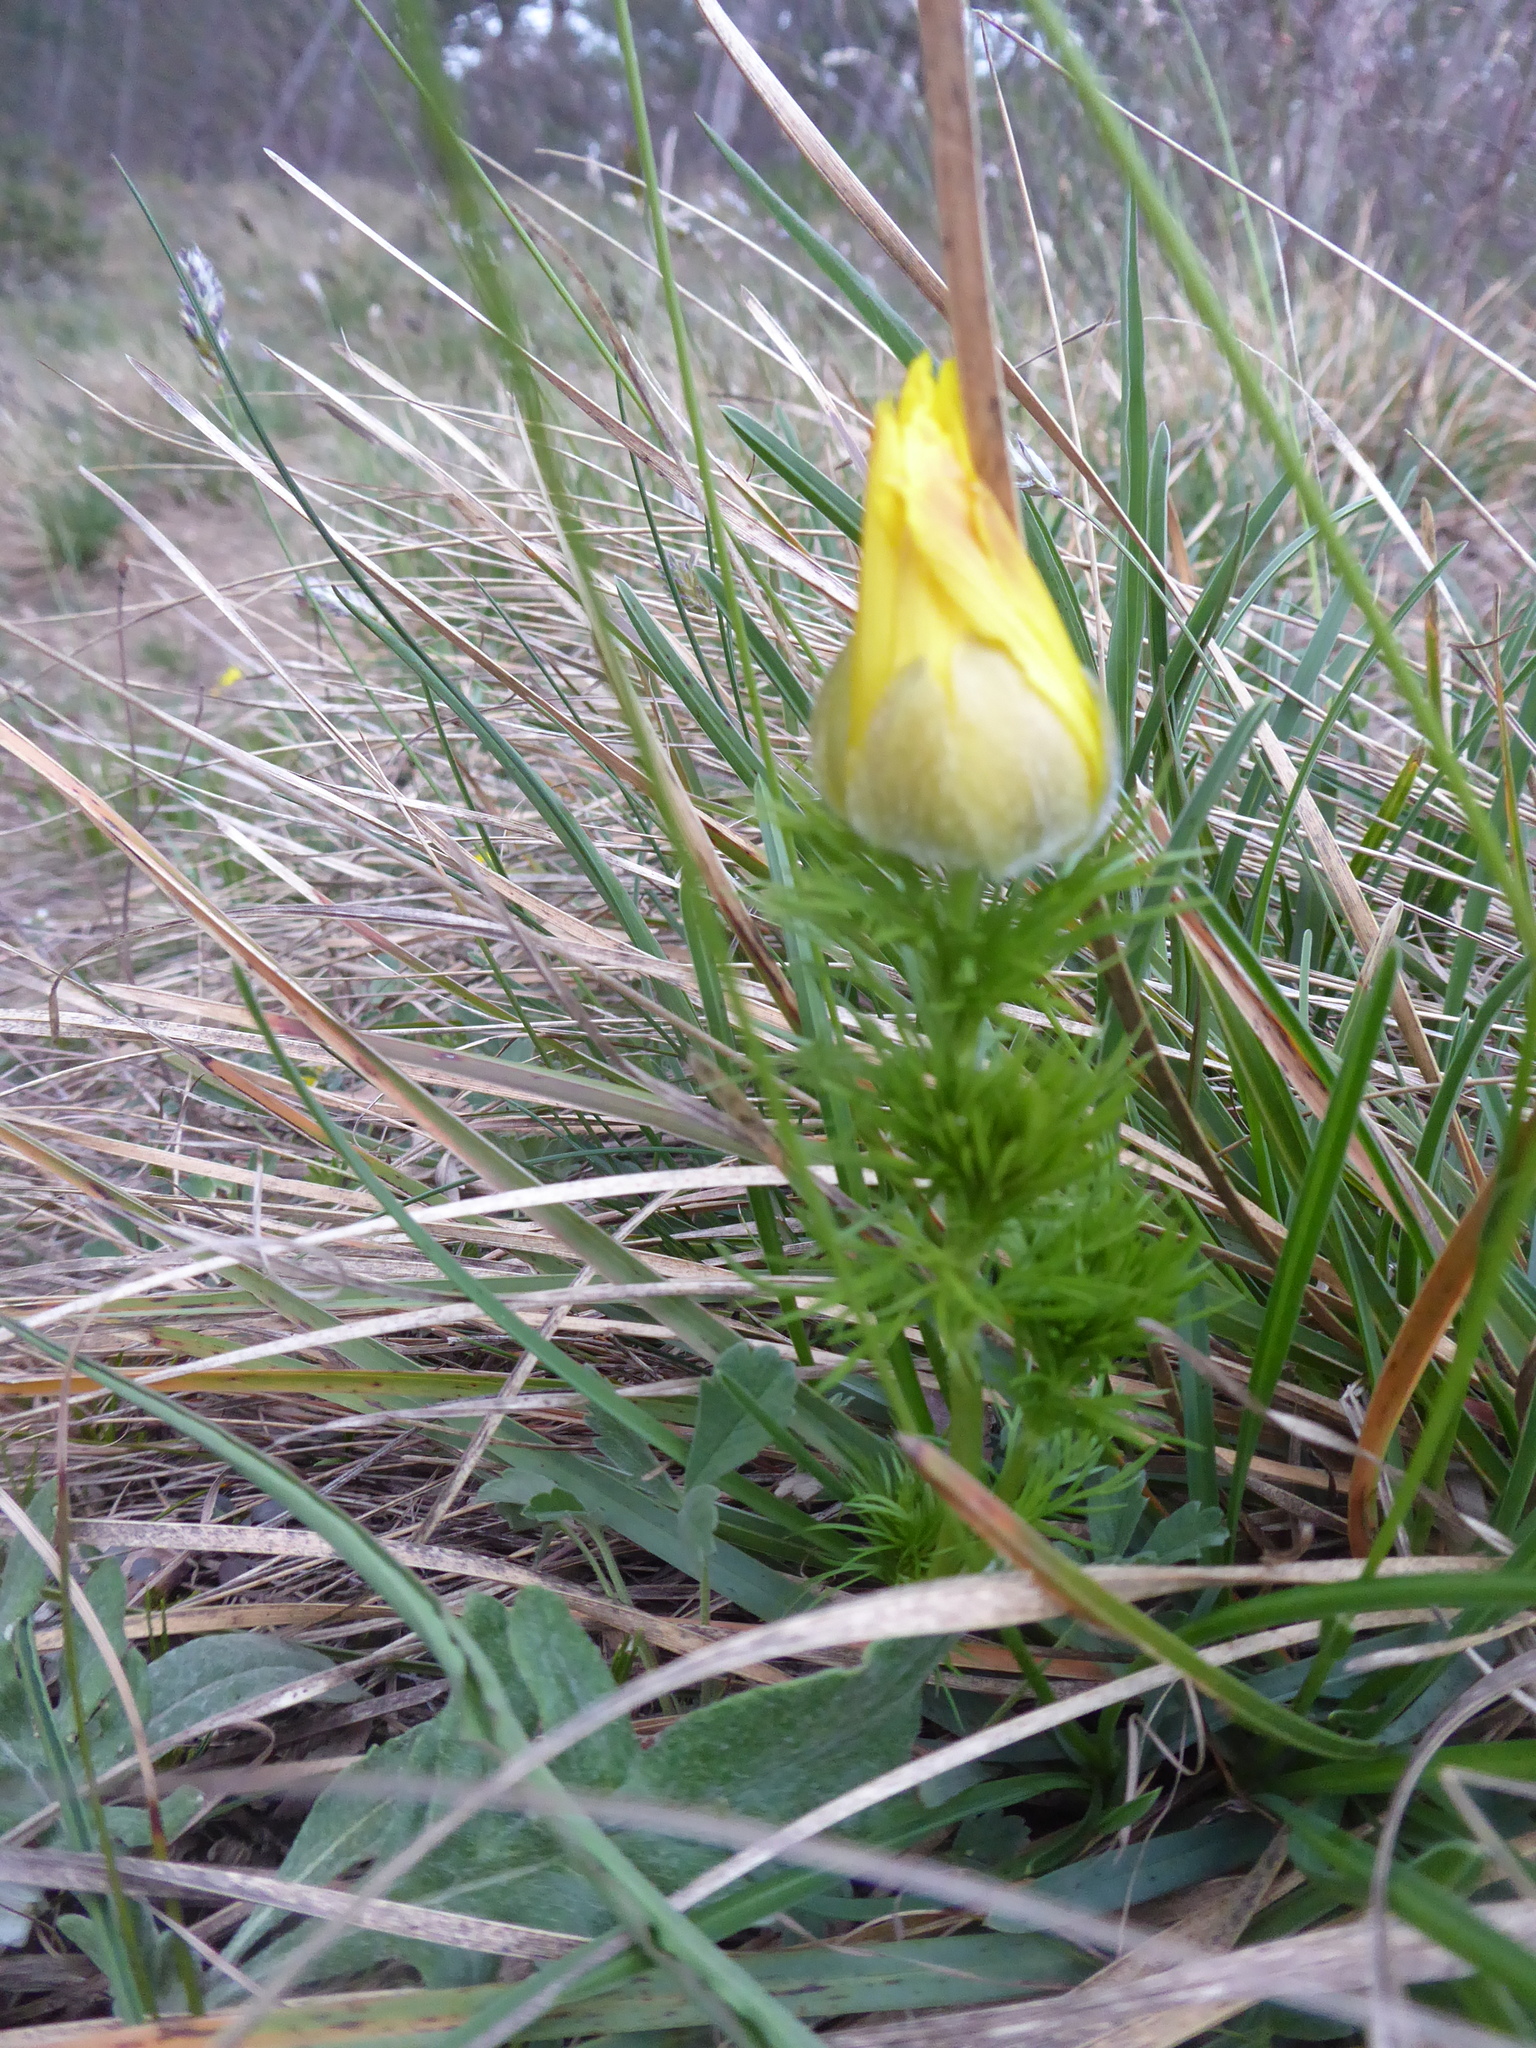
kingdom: Plantae
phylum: Tracheophyta
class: Magnoliopsida
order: Ranunculales
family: Ranunculaceae
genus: Adonis
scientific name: Adonis vernalis
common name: Yellow pheasants-eye
